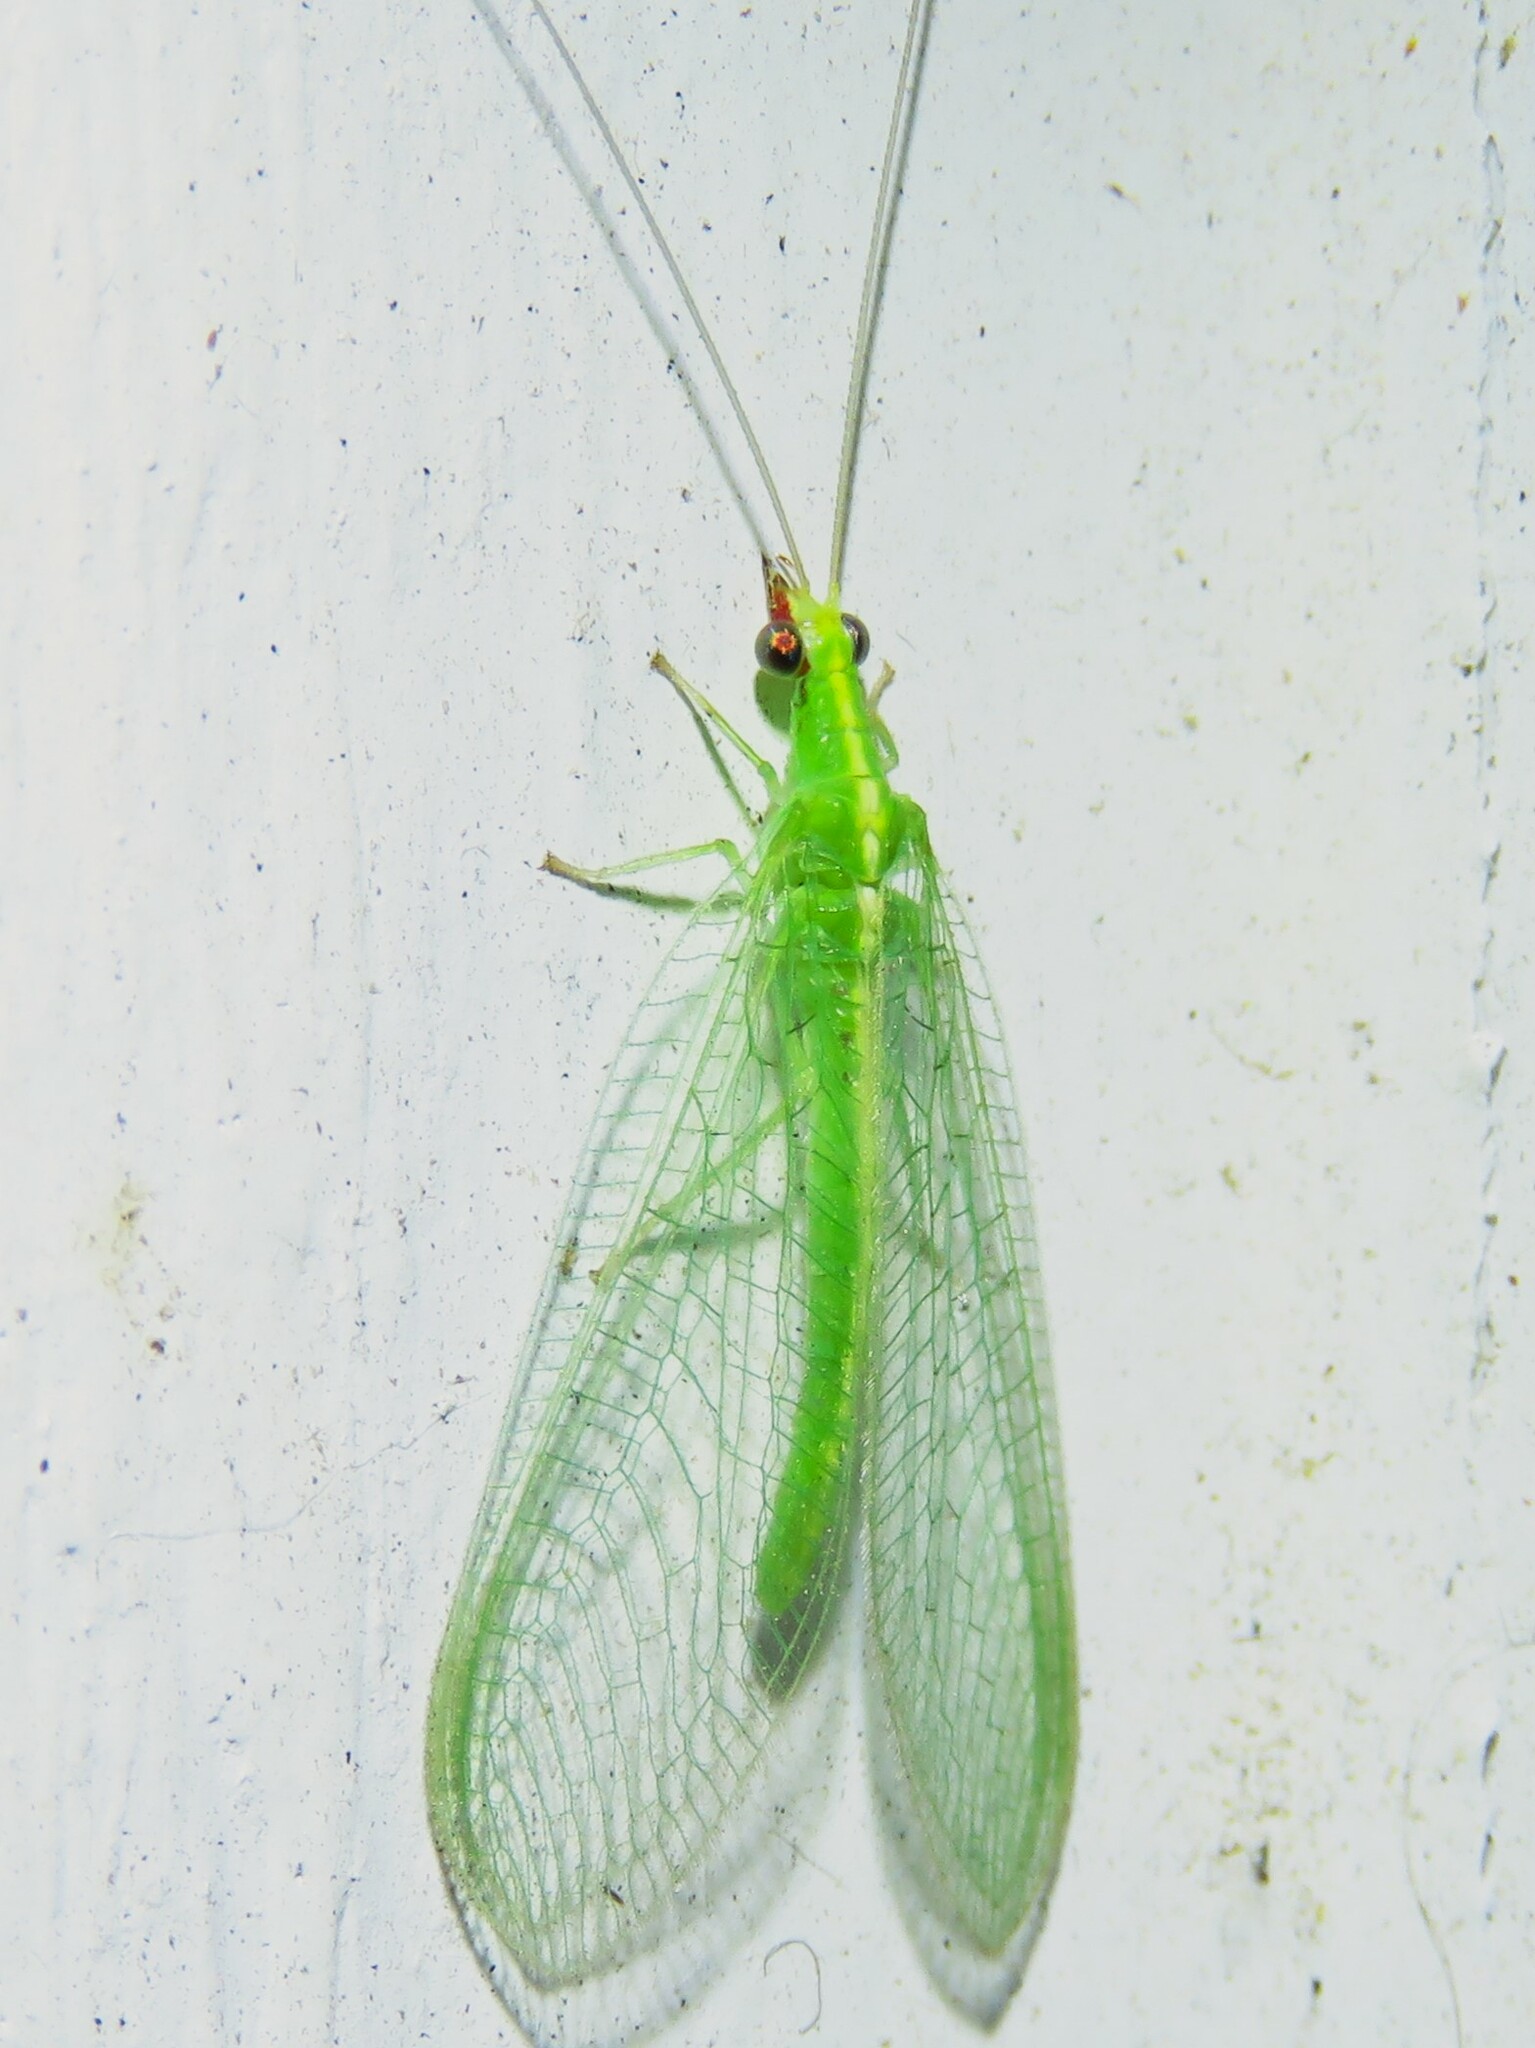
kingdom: Animalia
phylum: Arthropoda
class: Insecta
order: Neuroptera
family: Chrysopidae
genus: Chrysoperla
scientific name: Chrysoperla rufilabris
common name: Red-lipped green lacewing
